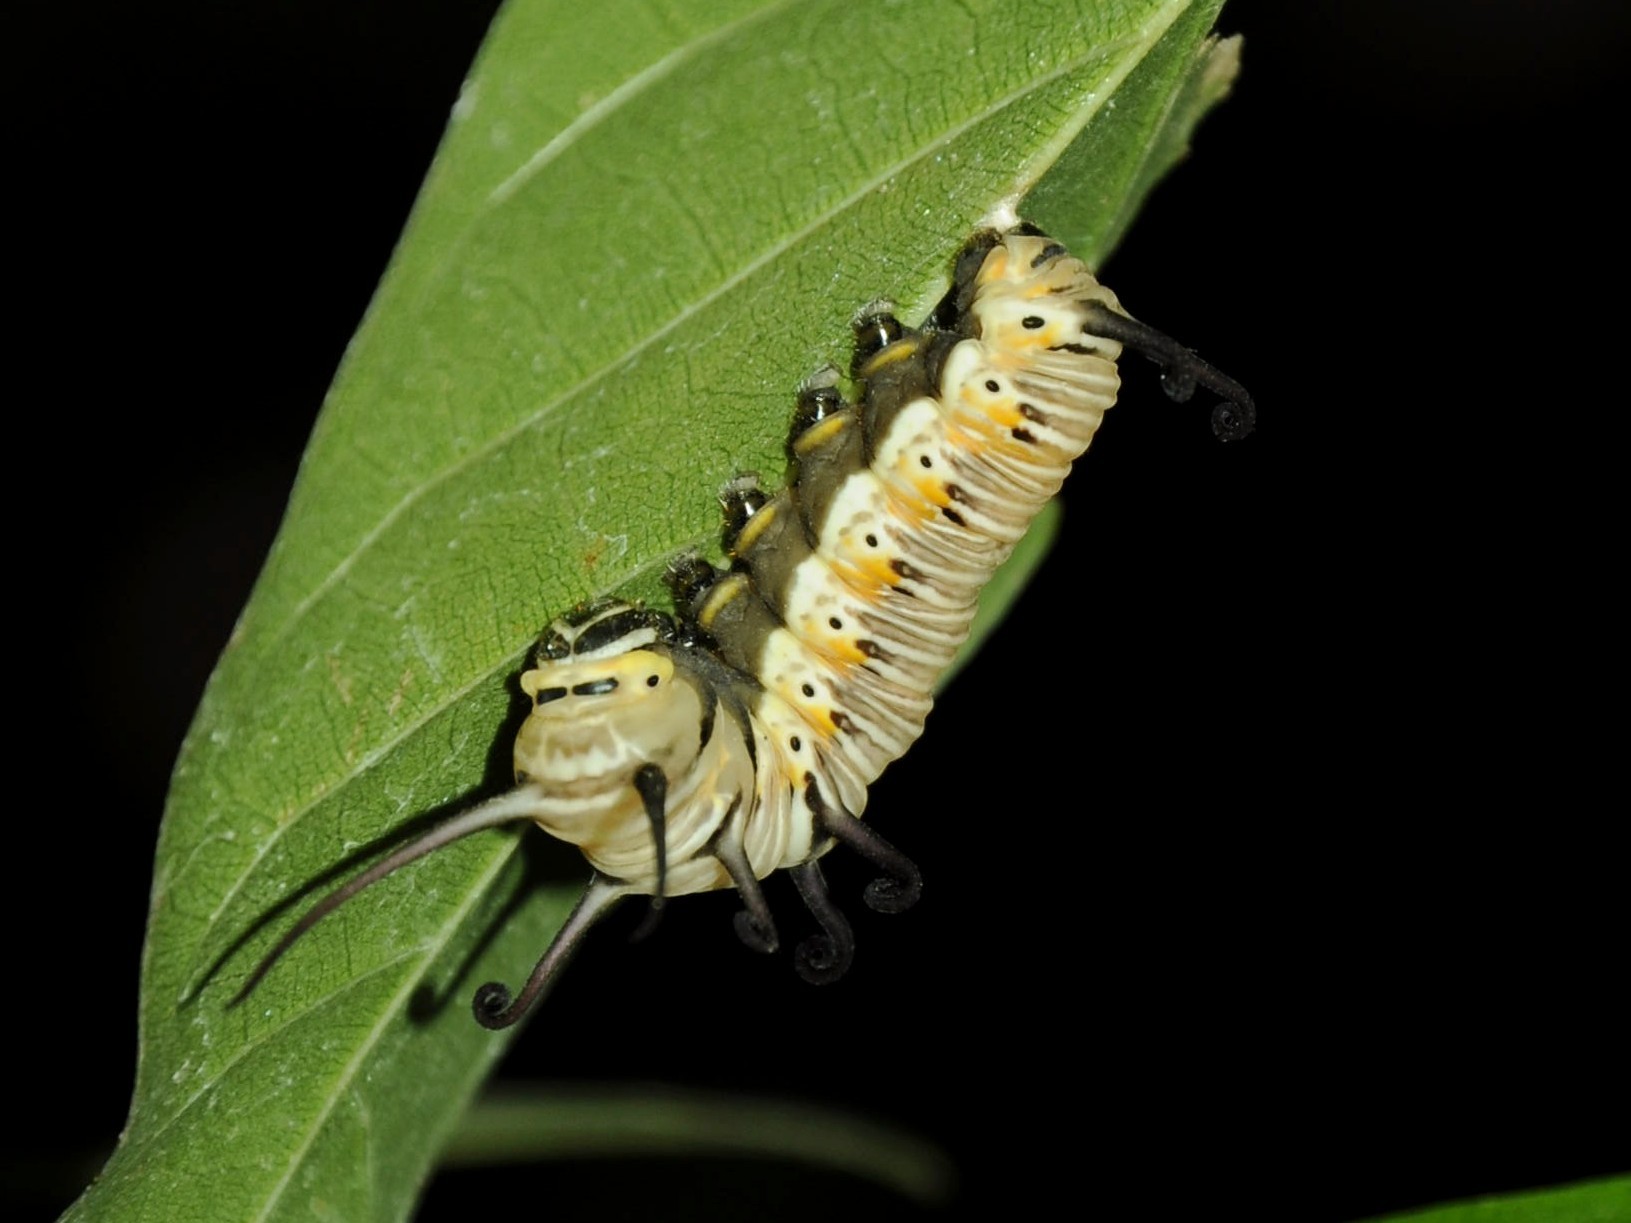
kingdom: Animalia
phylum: Arthropoda
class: Insecta
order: Lepidoptera
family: Nymphalidae
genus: Euploea
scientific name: Euploea core
